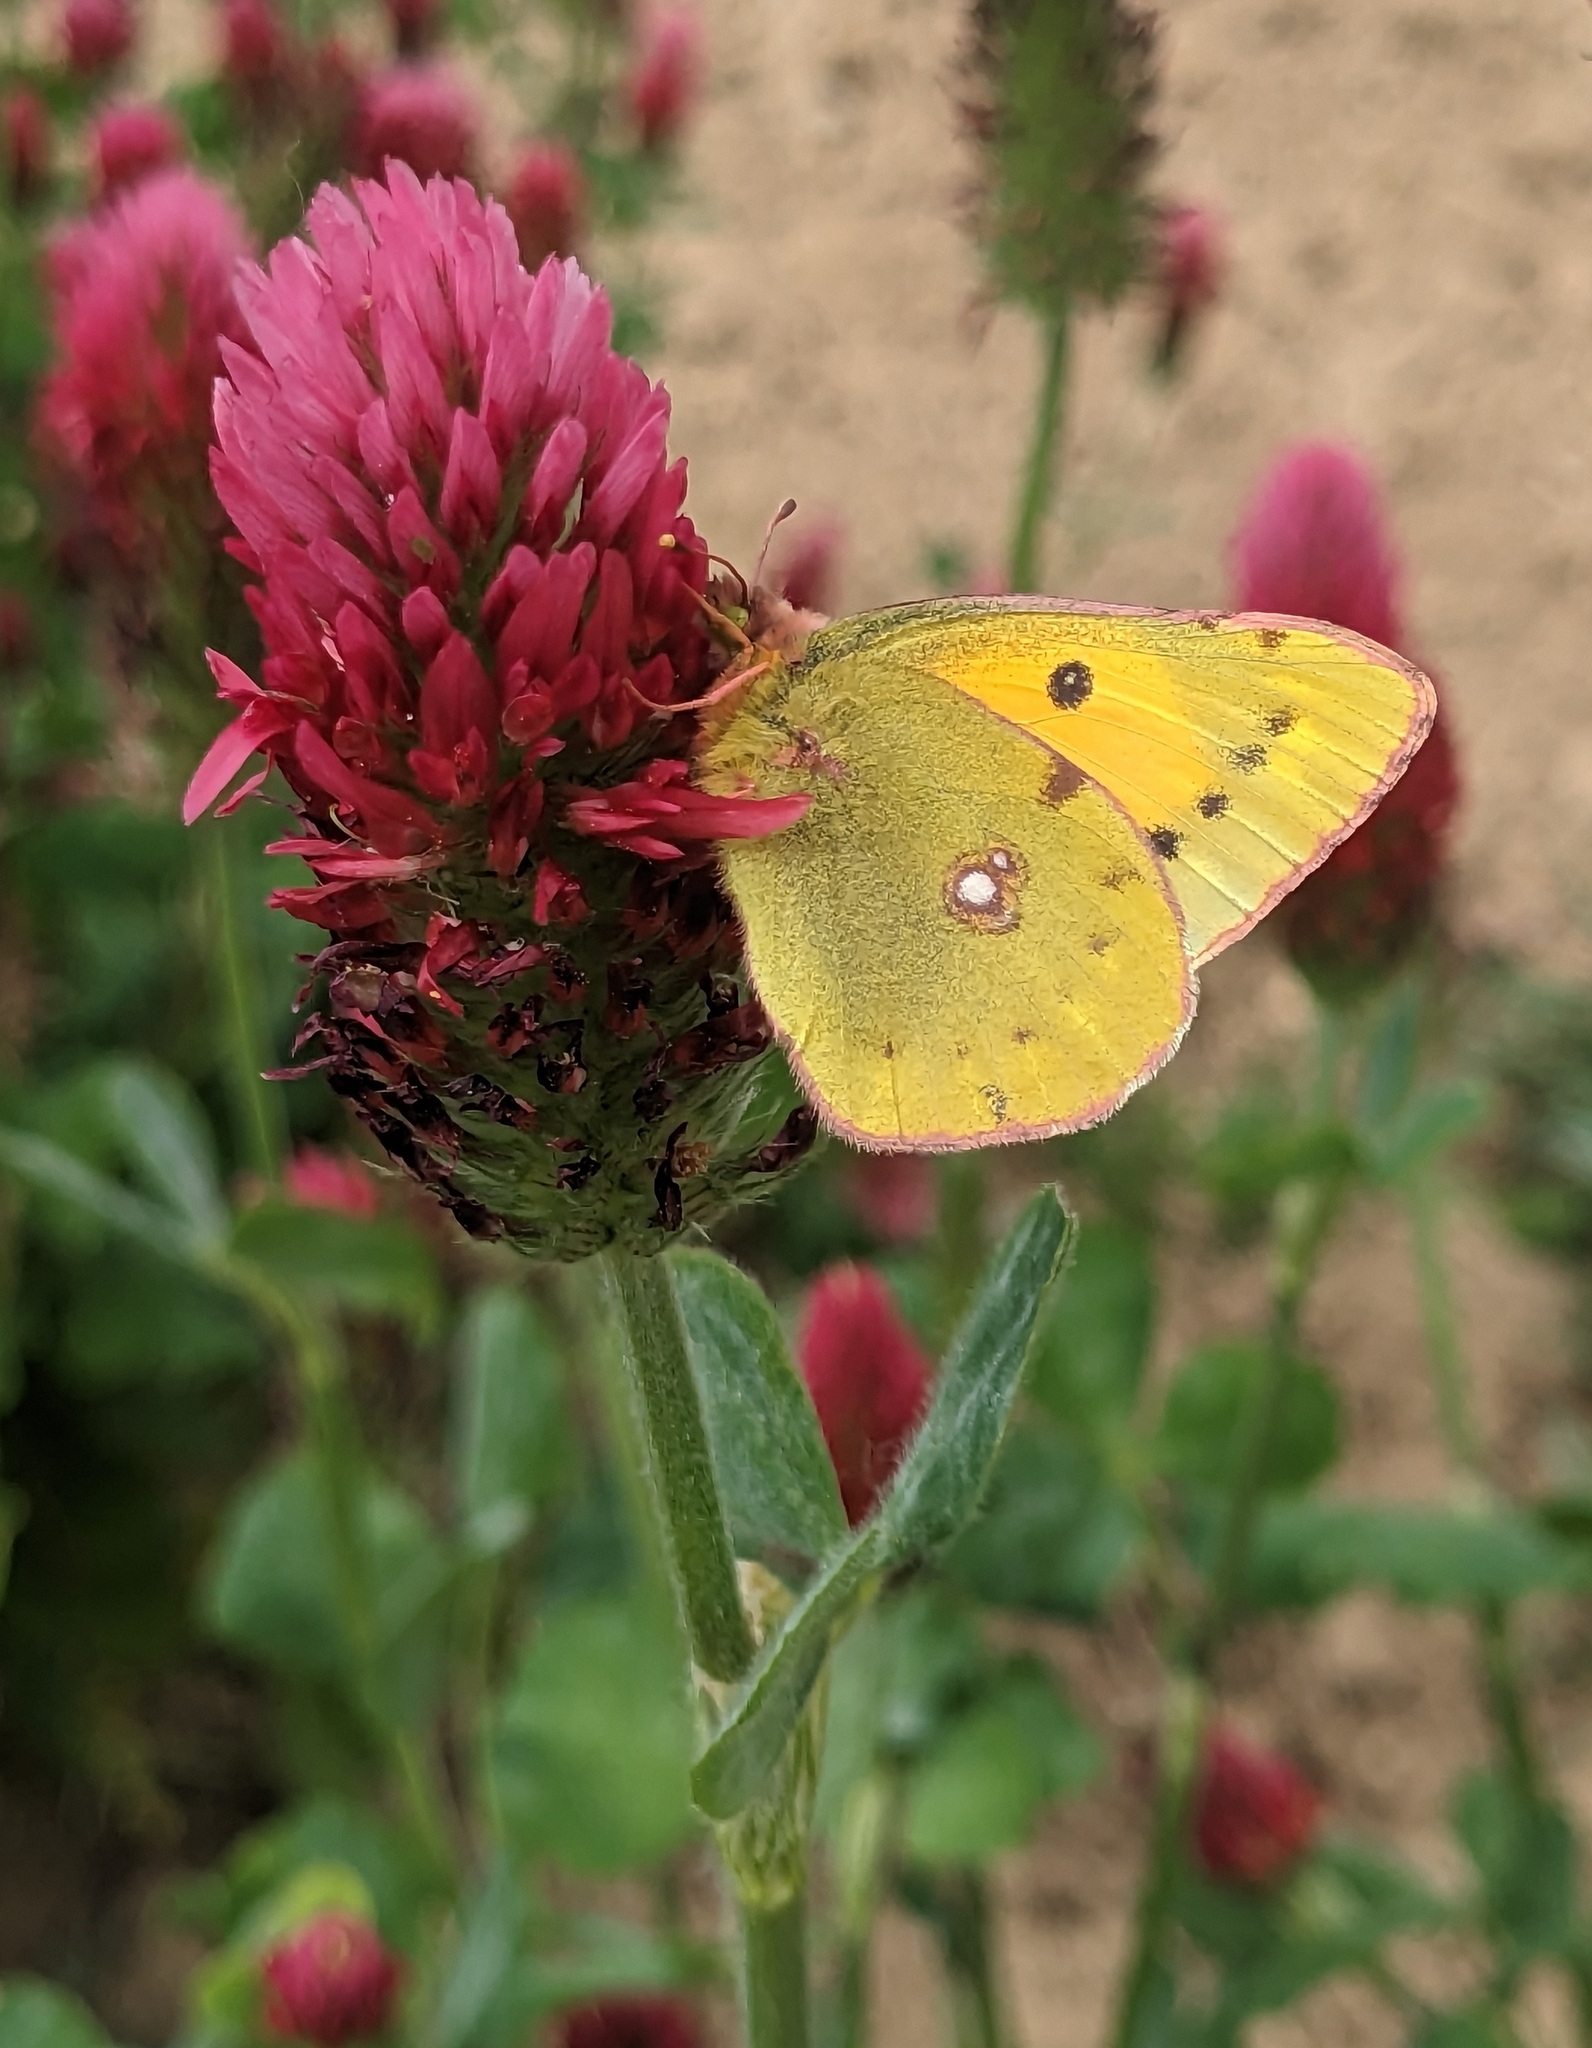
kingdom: Animalia
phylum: Arthropoda
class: Insecta
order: Lepidoptera
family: Pieridae
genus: Colias
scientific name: Colias croceus
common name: Clouded yellow
